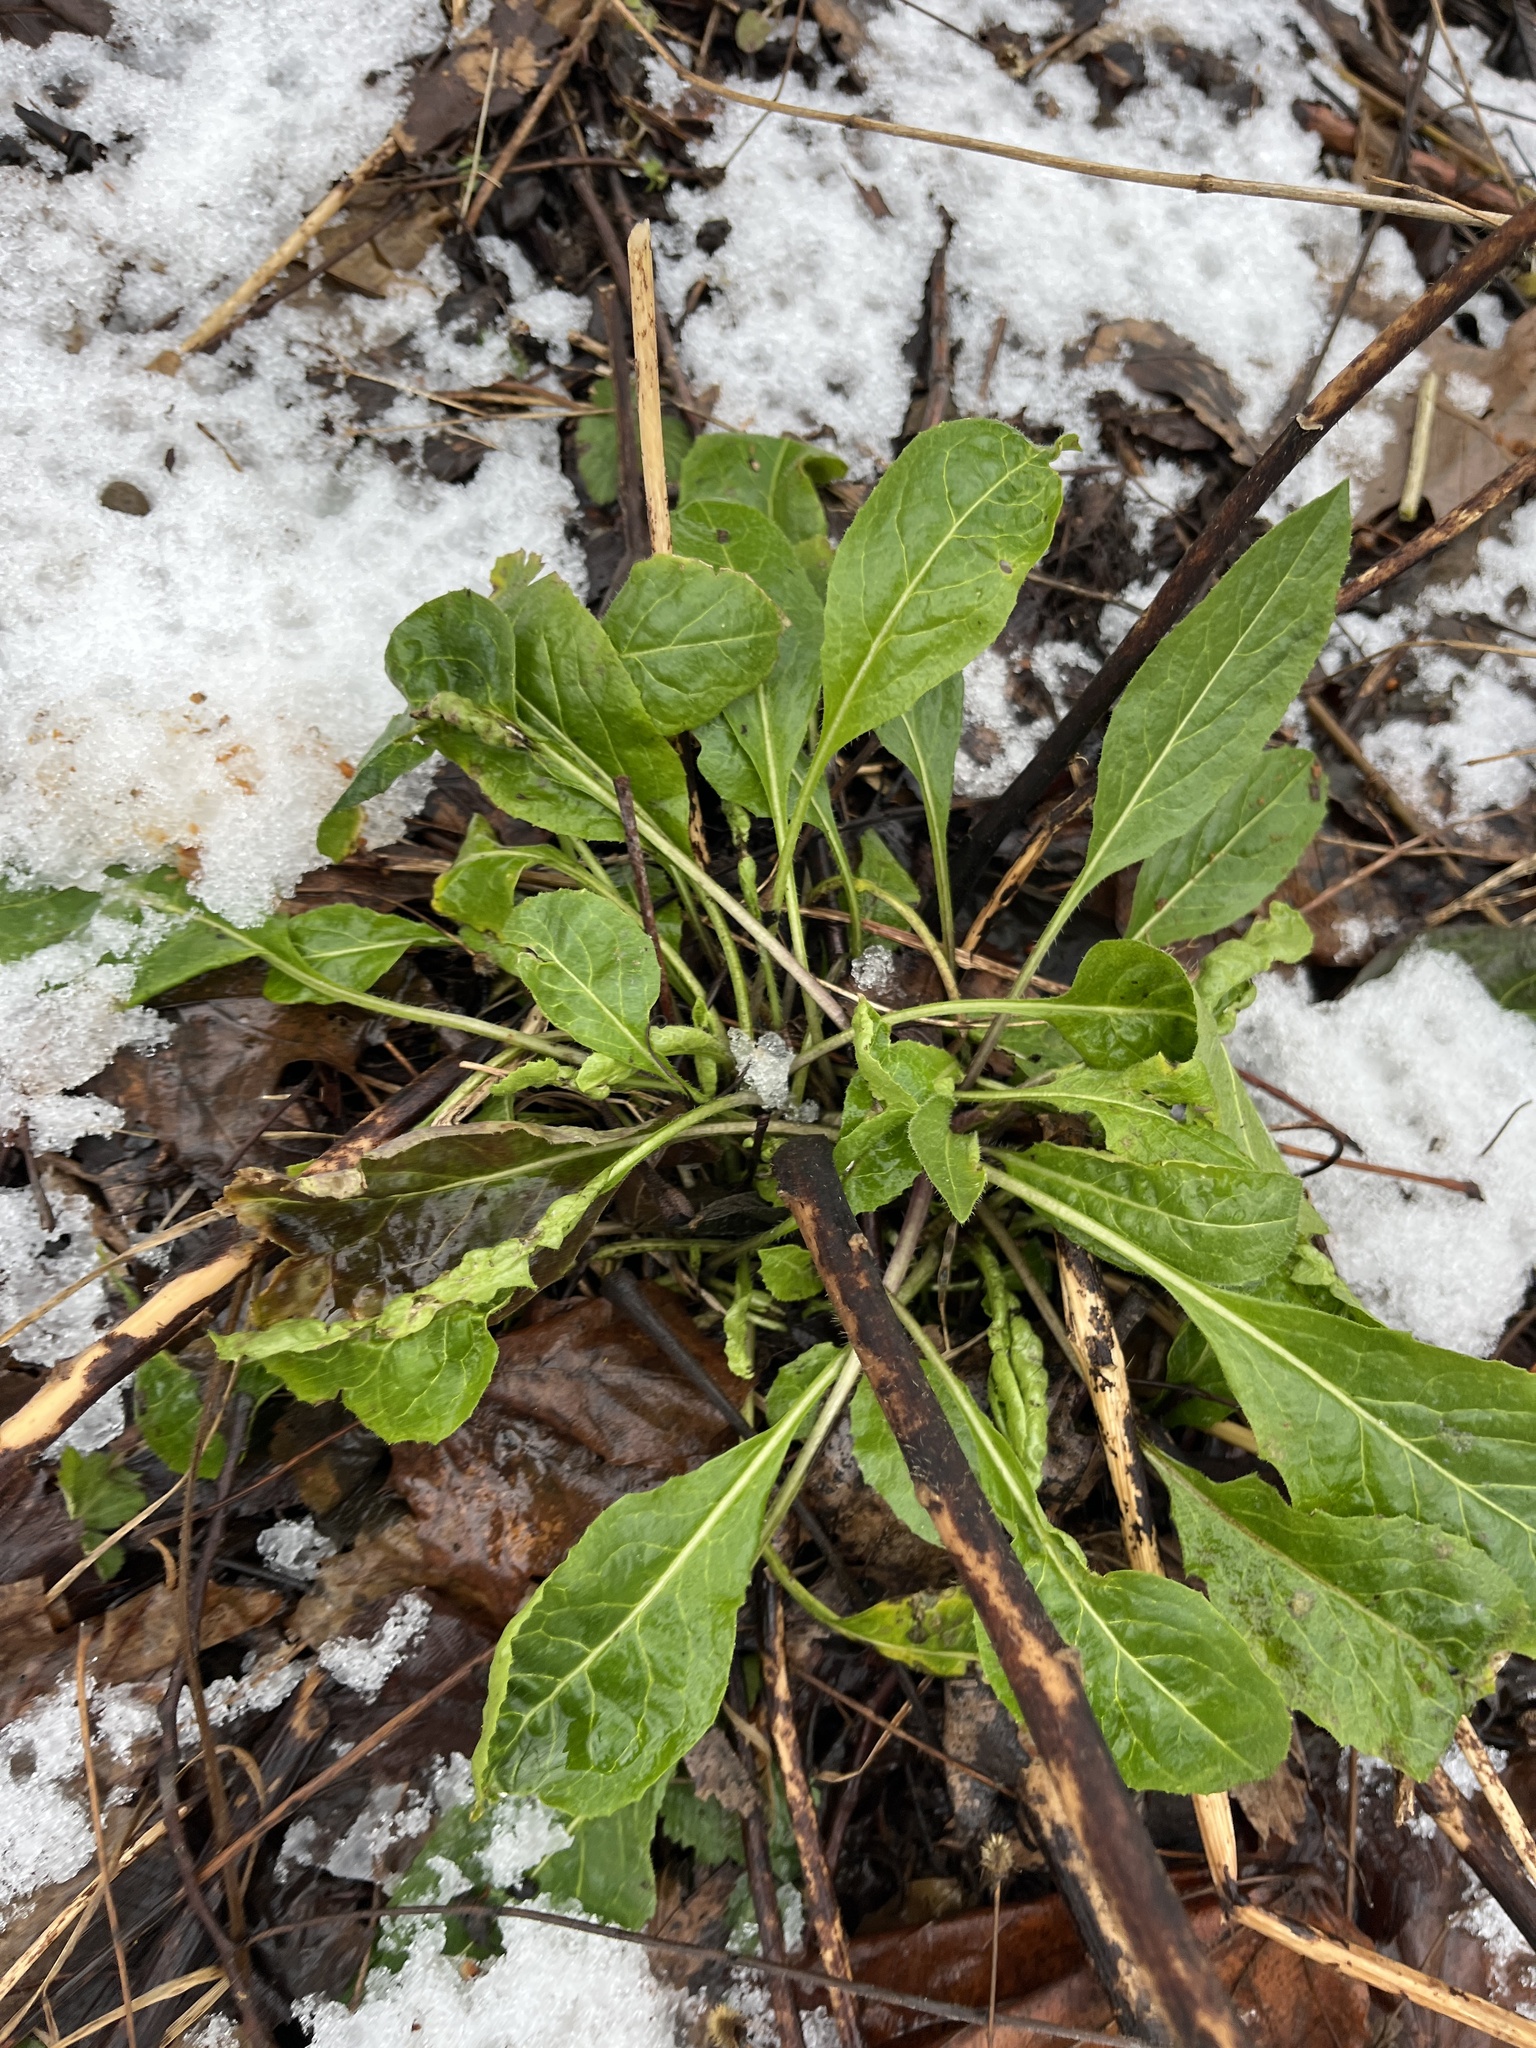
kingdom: Plantae
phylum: Tracheophyta
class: Magnoliopsida
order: Brassicales
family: Brassicaceae
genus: Hesperis
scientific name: Hesperis matronalis
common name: Dame's-violet
